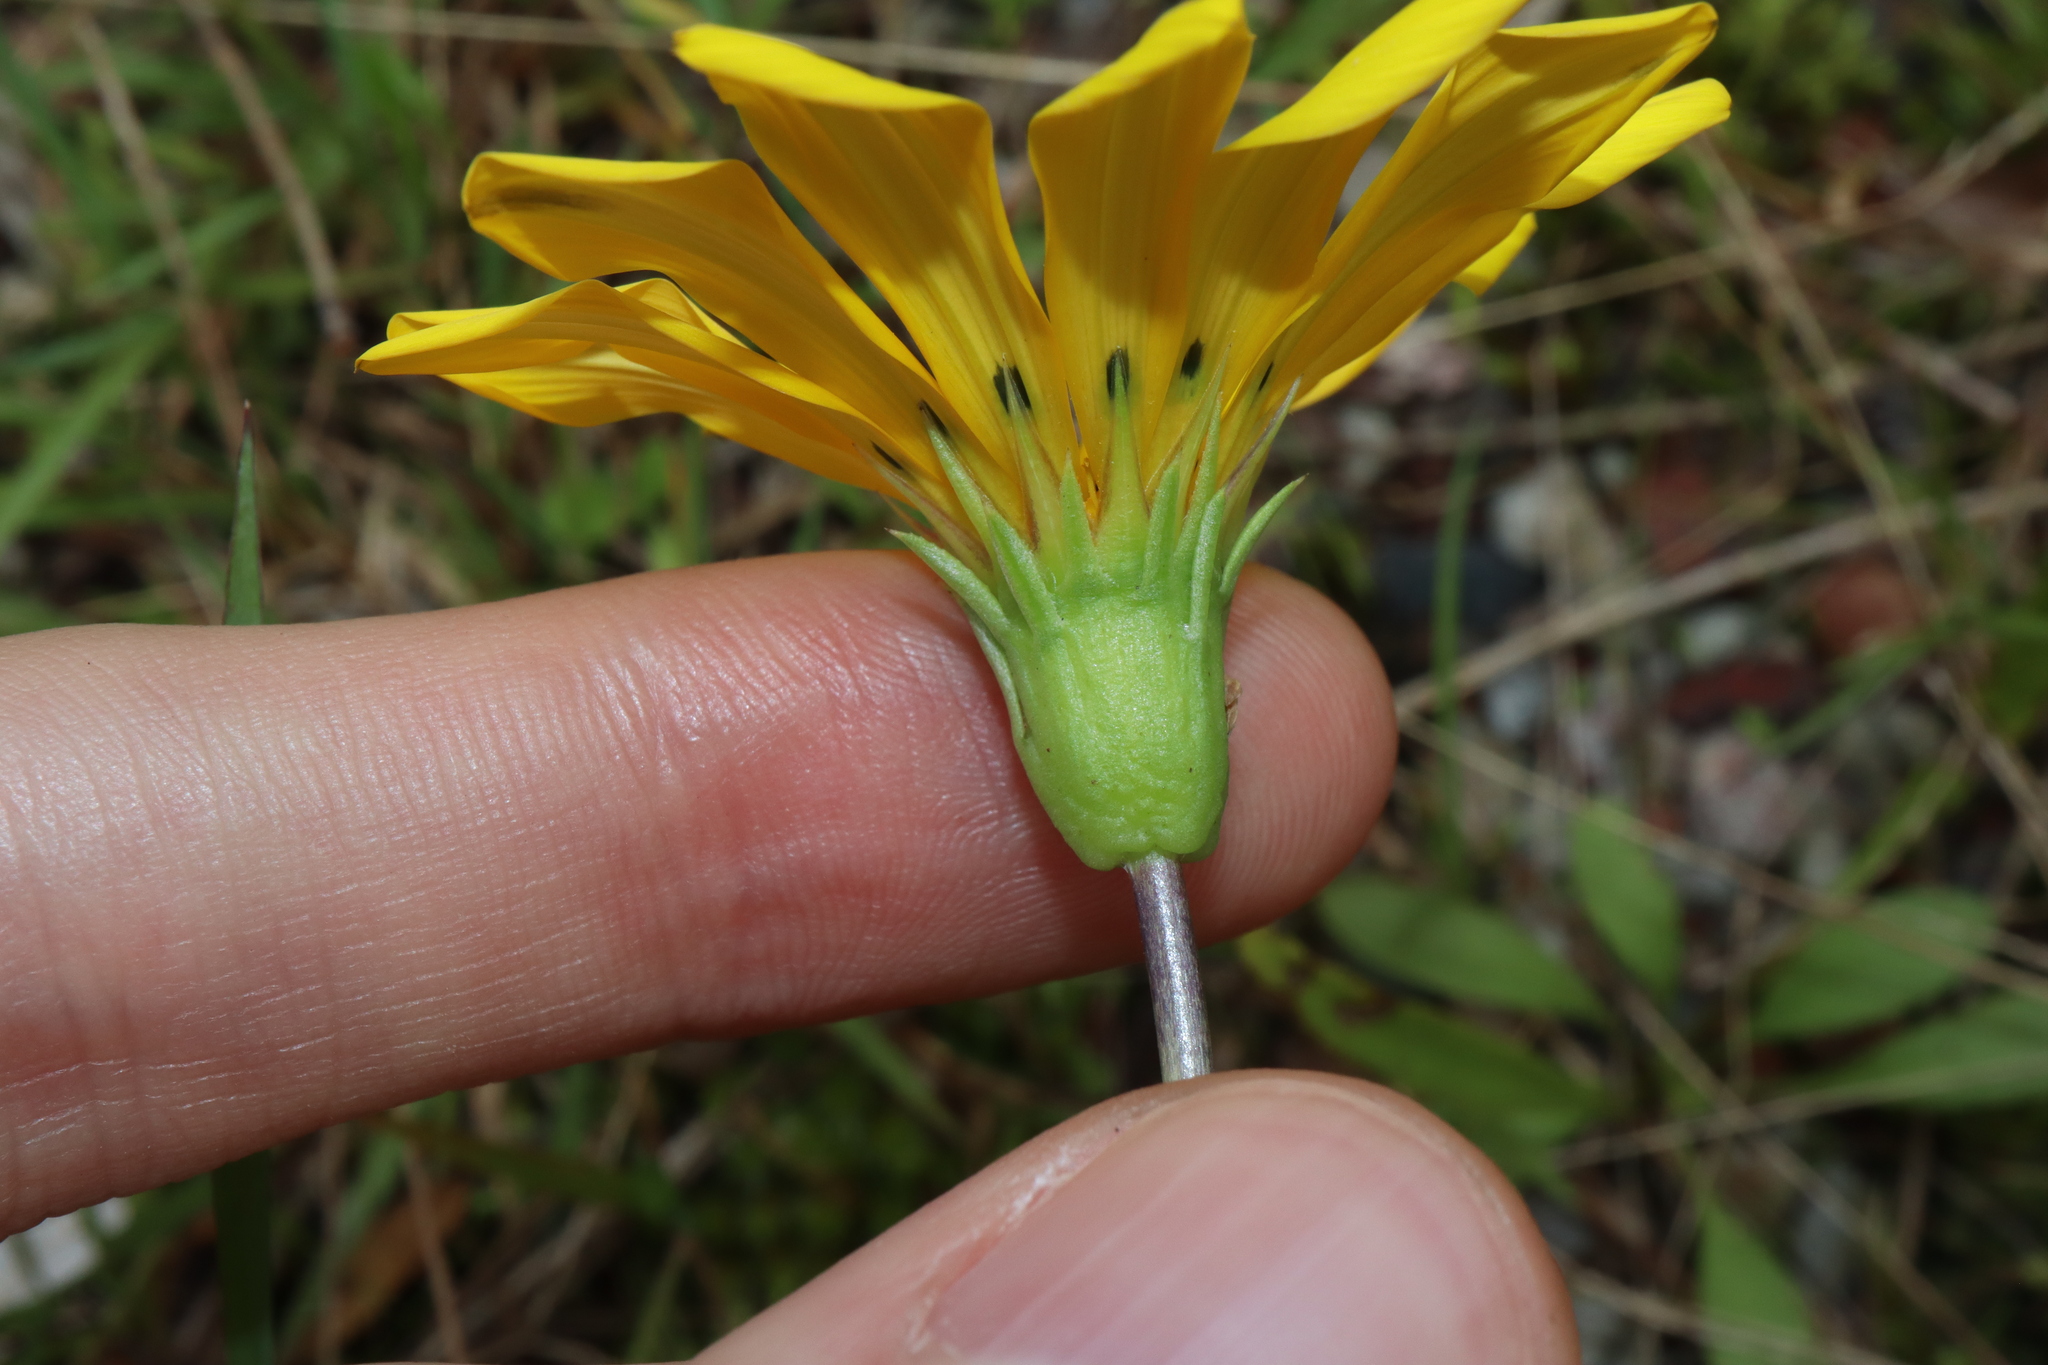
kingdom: Plantae
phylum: Tracheophyta
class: Magnoliopsida
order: Asterales
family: Asteraceae
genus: Gazania
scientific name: Gazania splendens
